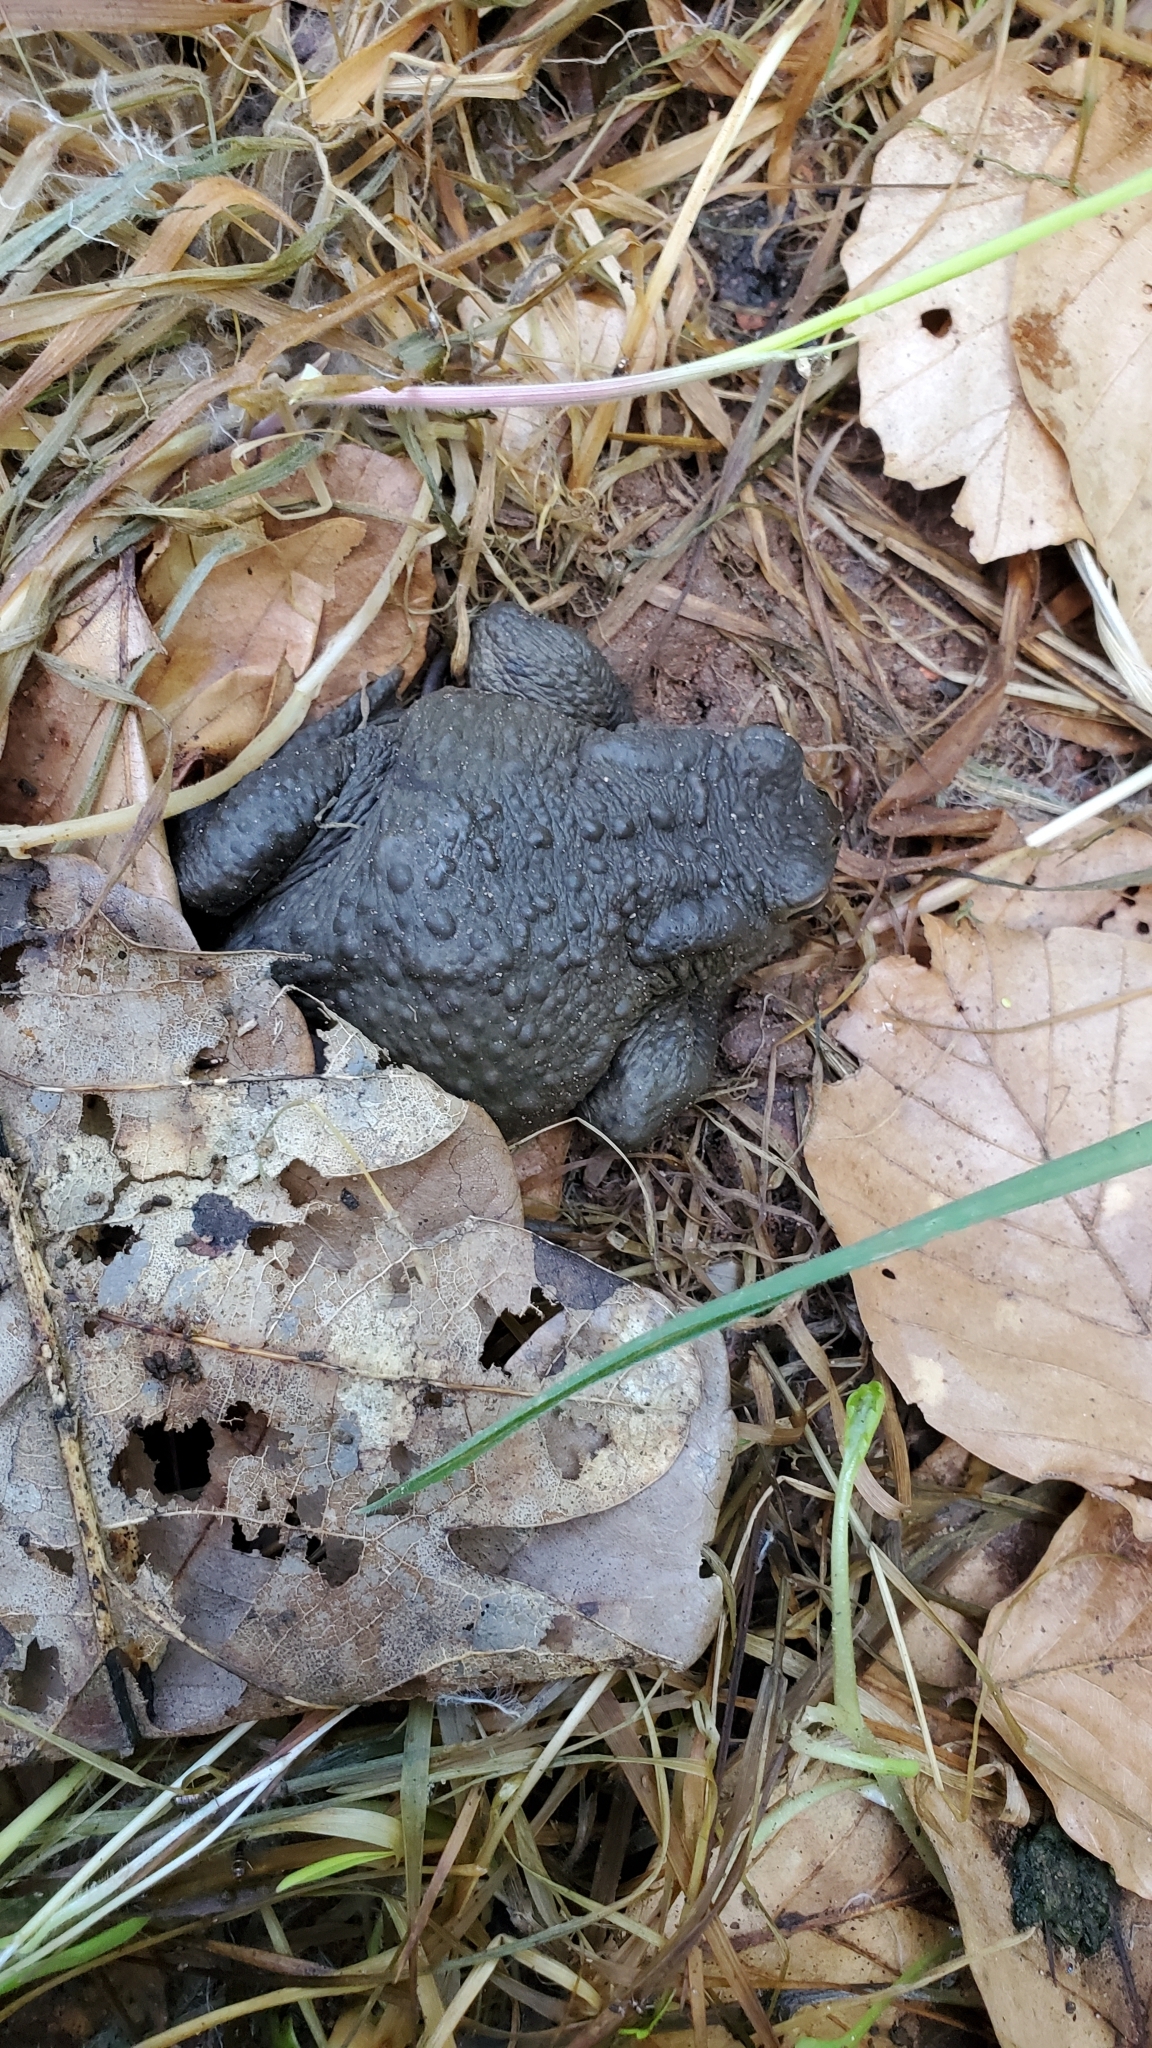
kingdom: Animalia
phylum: Chordata
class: Amphibia
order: Anura
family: Bufonidae
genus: Bufo
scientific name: Bufo bufo
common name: Common toad
